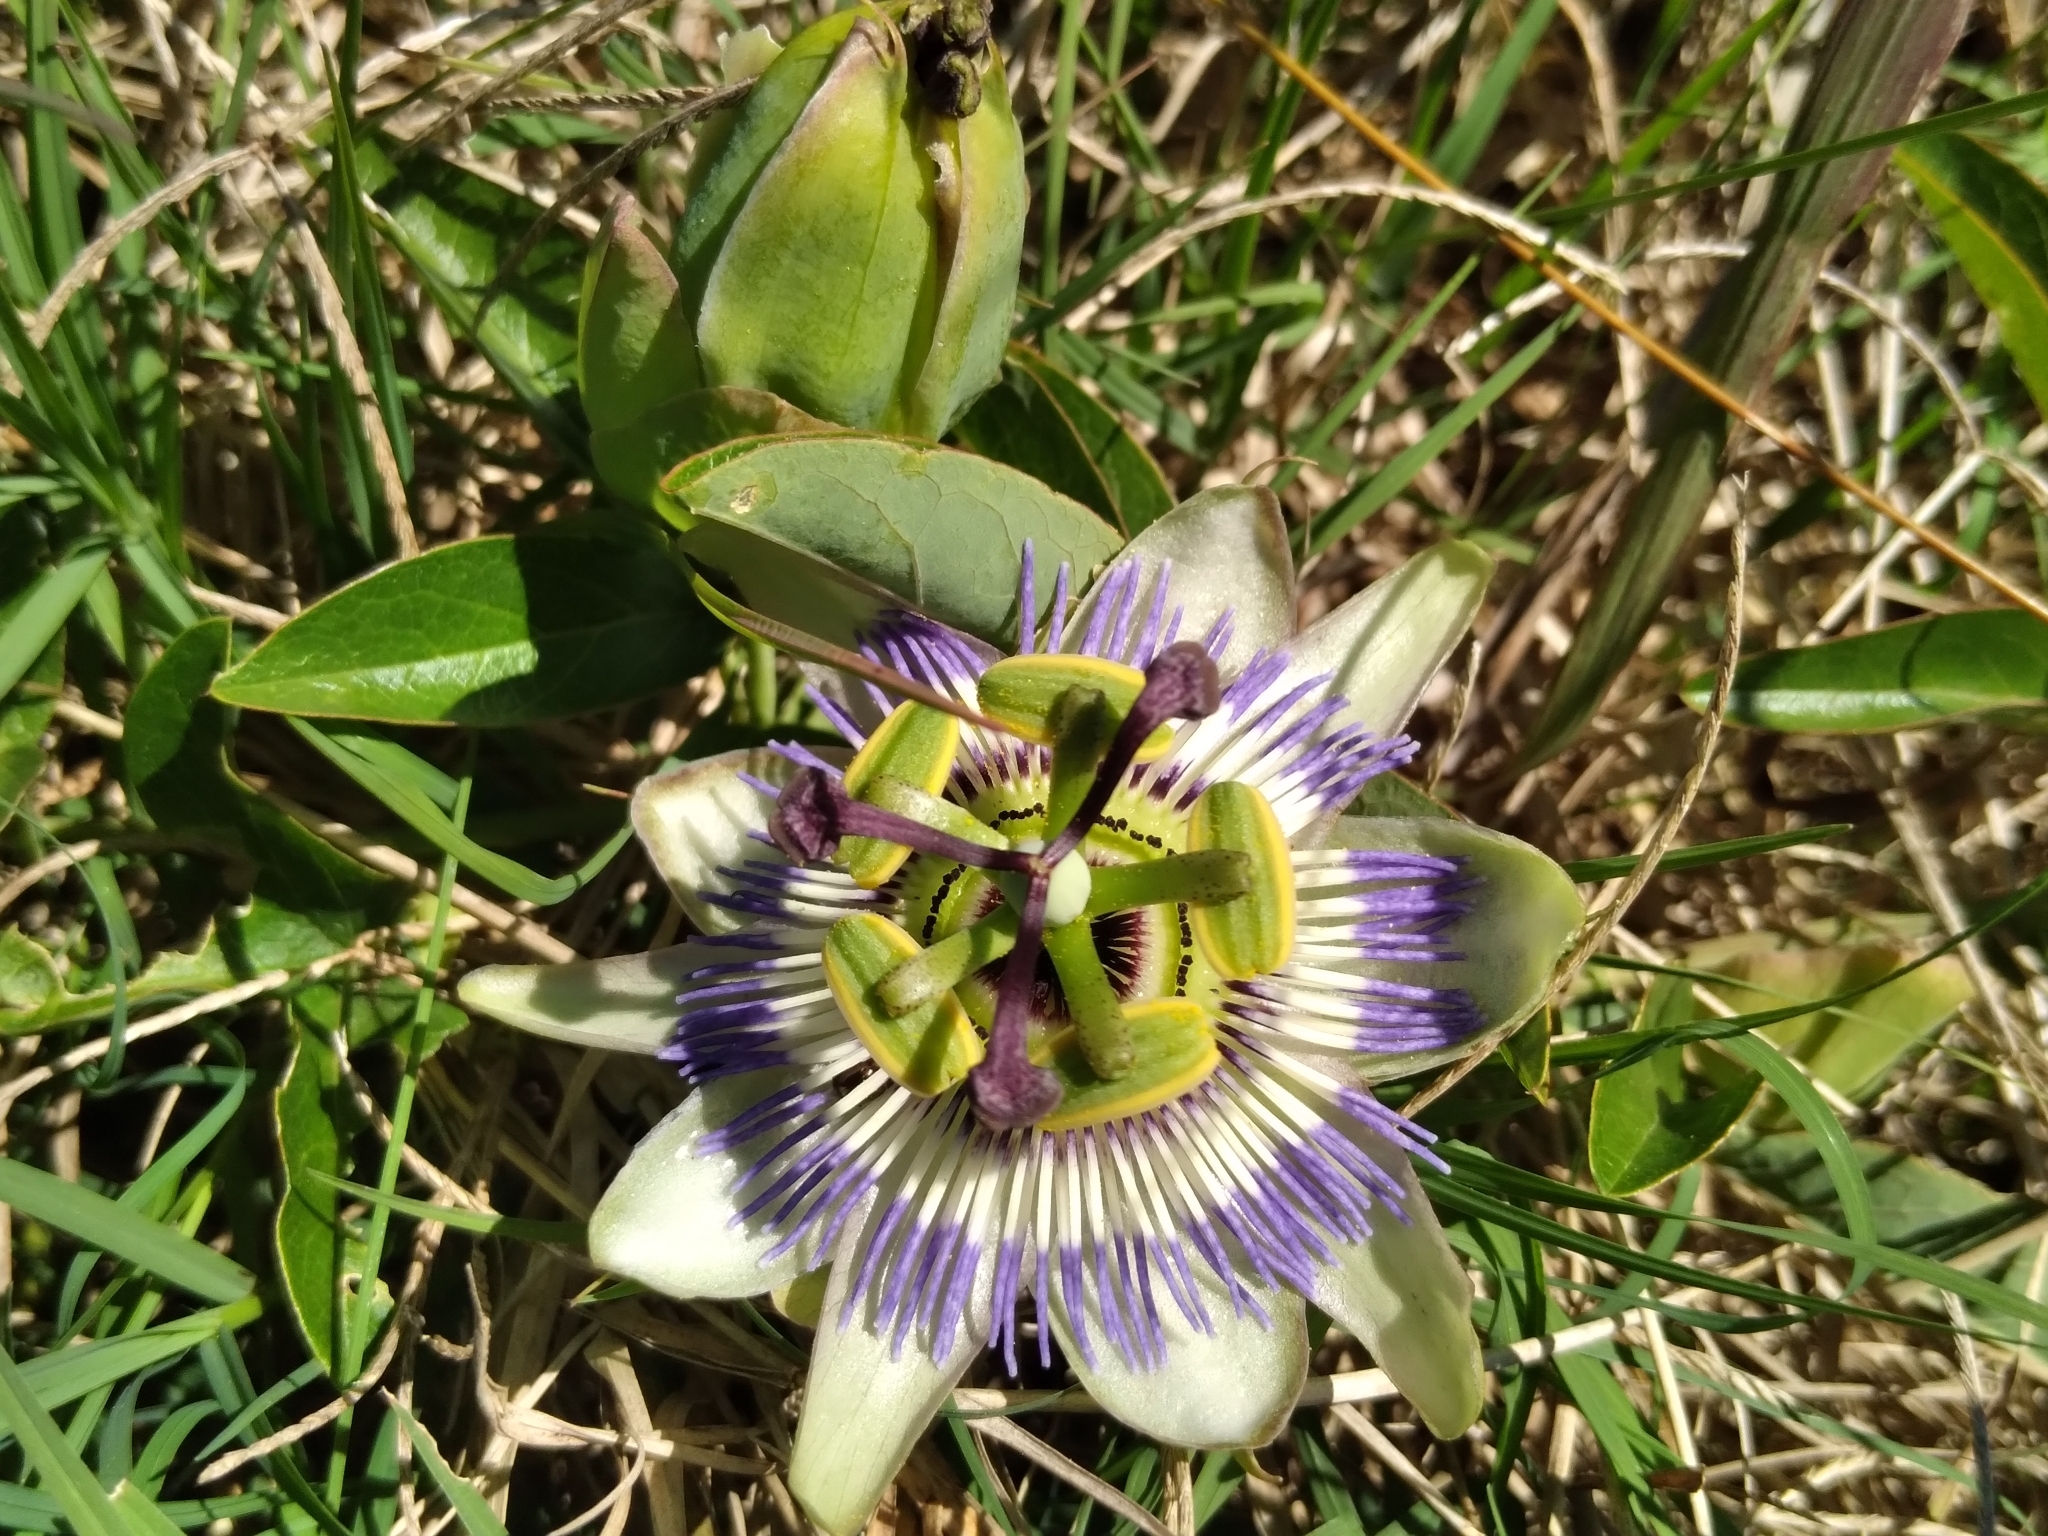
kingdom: Plantae
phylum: Tracheophyta
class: Magnoliopsida
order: Malpighiales
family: Passifloraceae
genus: Passiflora
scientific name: Passiflora caerulea
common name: Blue passionflower
